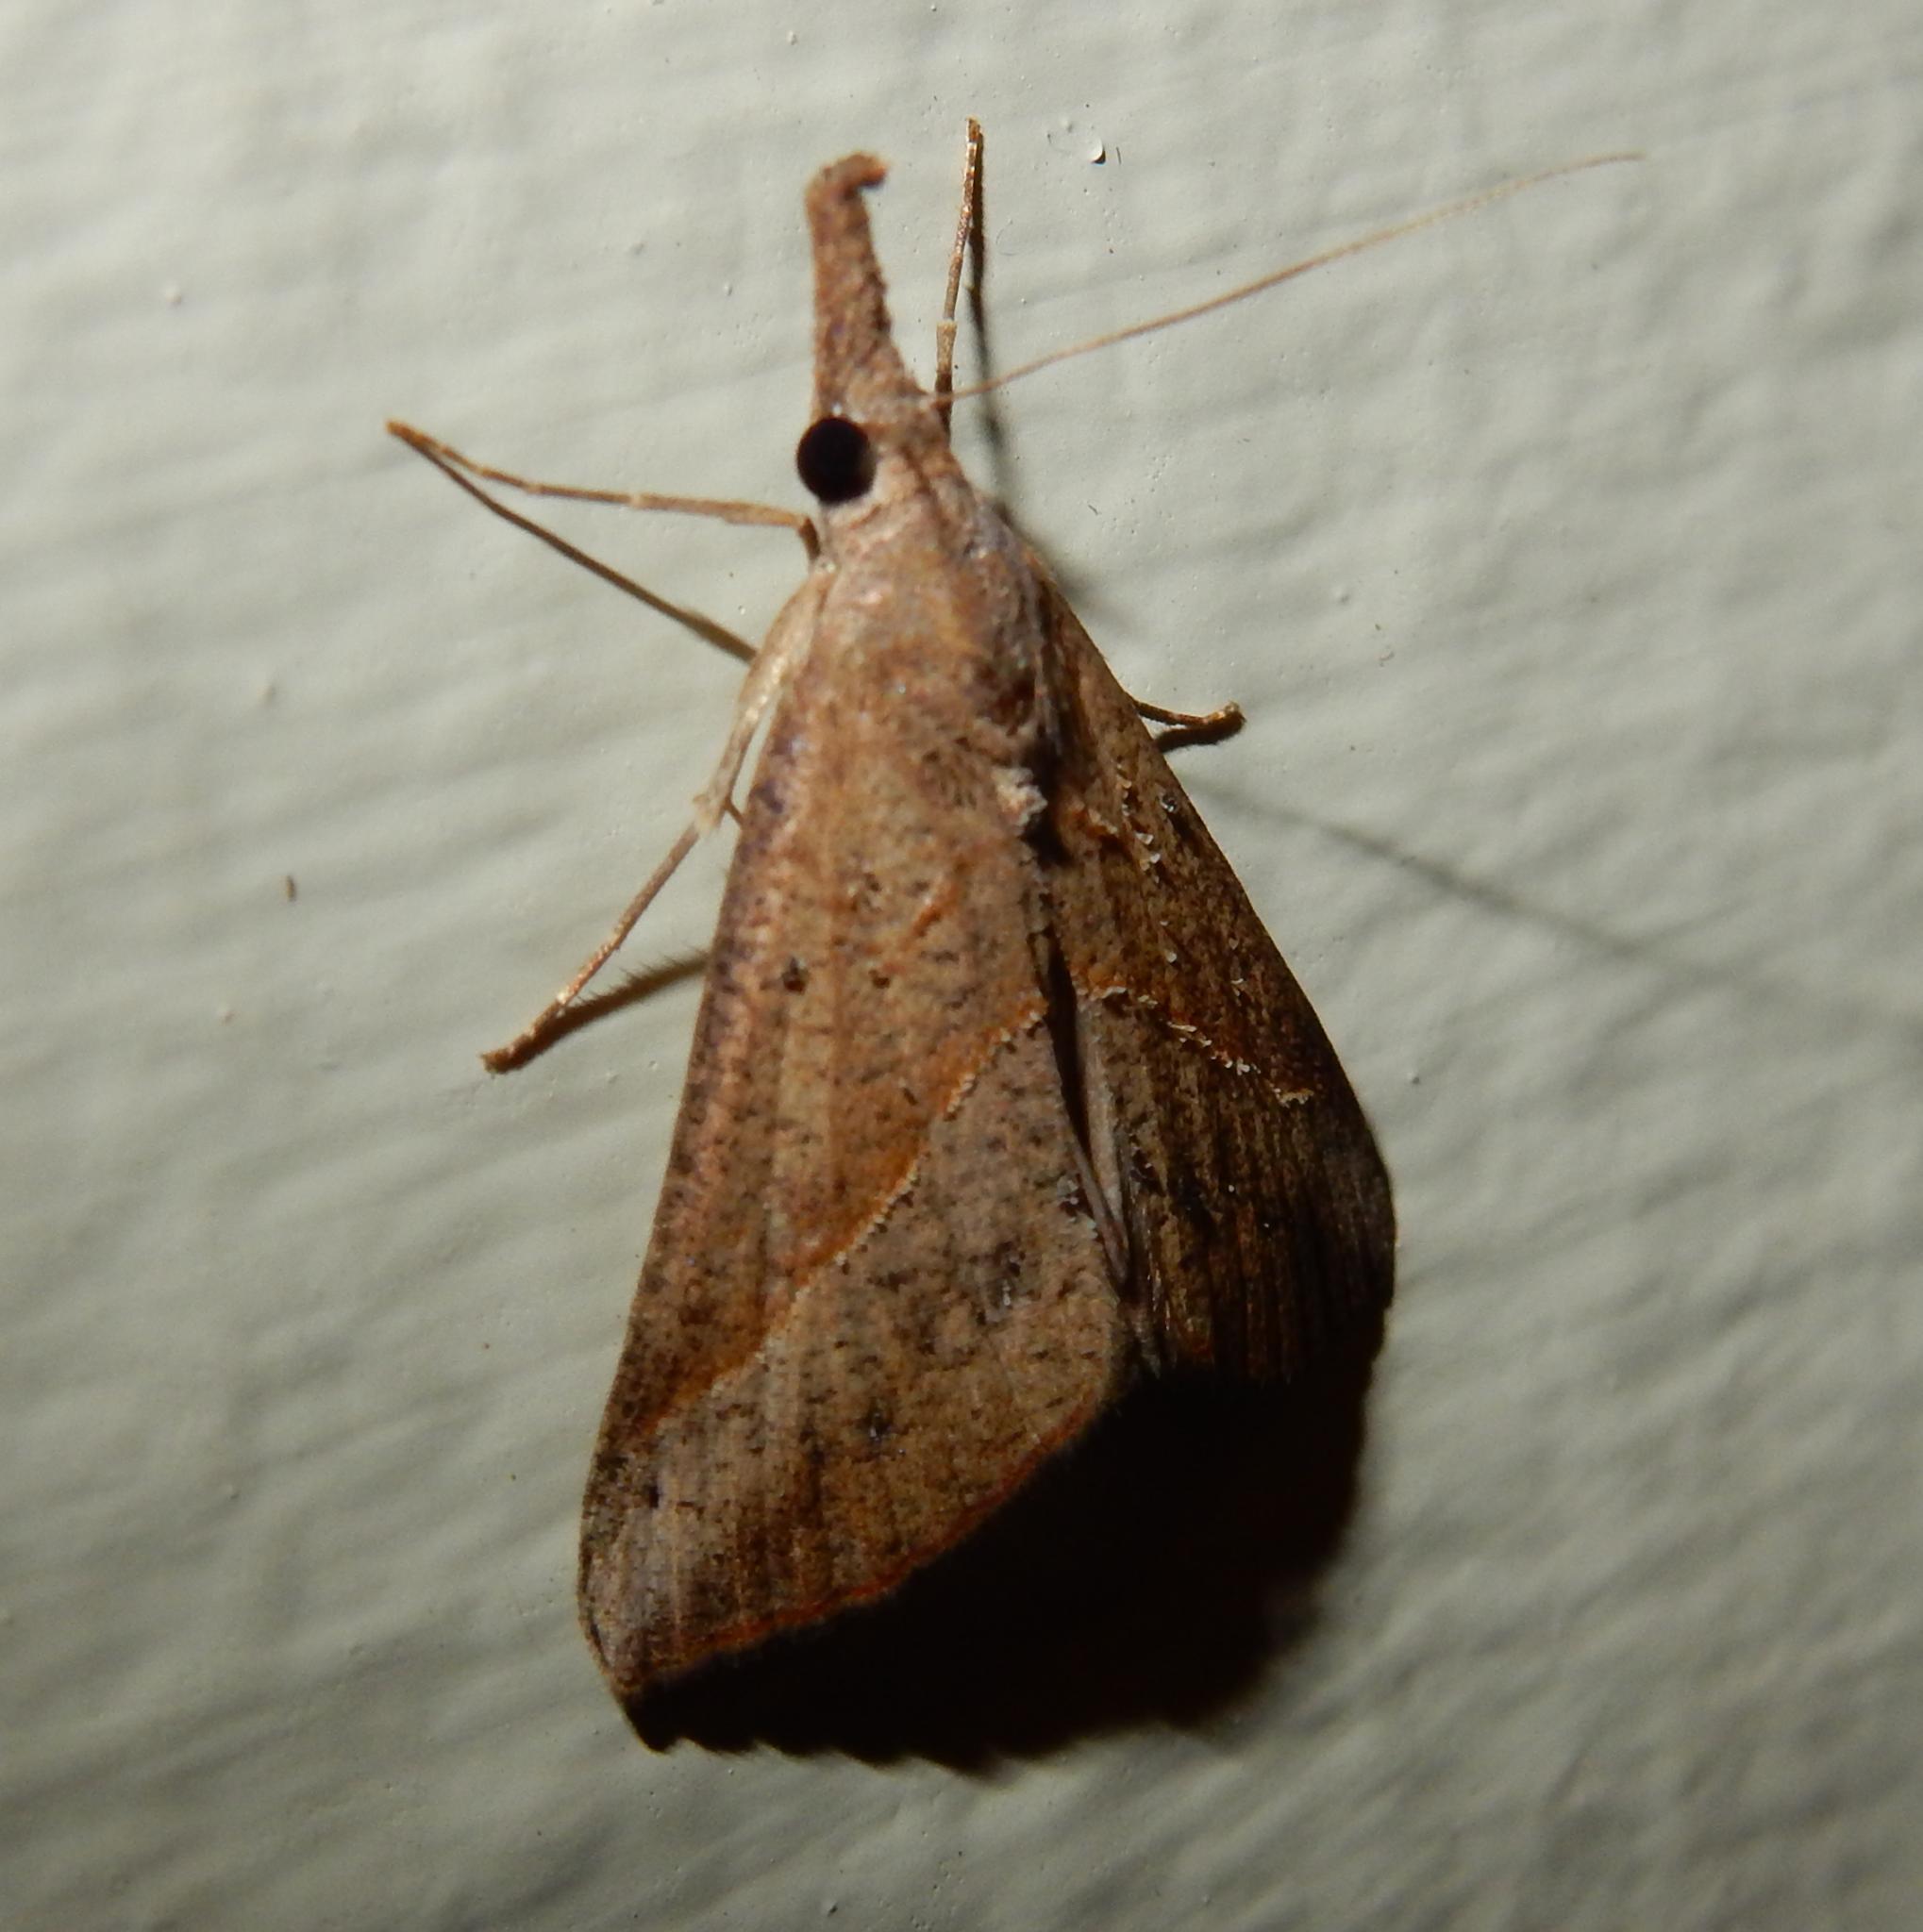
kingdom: Animalia
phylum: Arthropoda
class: Insecta
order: Lepidoptera
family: Erebidae
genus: Hypena
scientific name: Hypena lividalis
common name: Chevron snout
